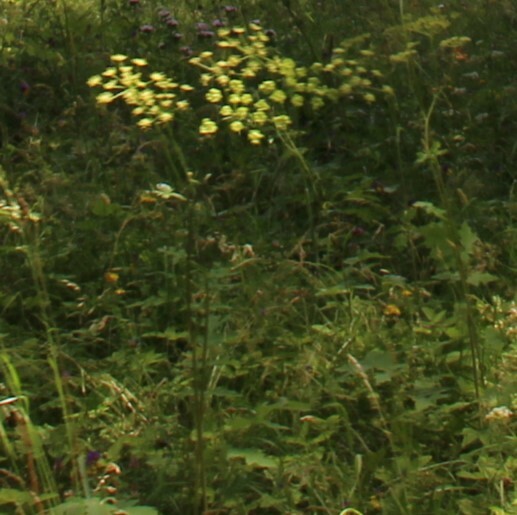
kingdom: Plantae
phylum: Tracheophyta
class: Magnoliopsida
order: Apiales
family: Apiaceae
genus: Heracleum
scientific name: Heracleum sphondylium
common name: Hogweed
